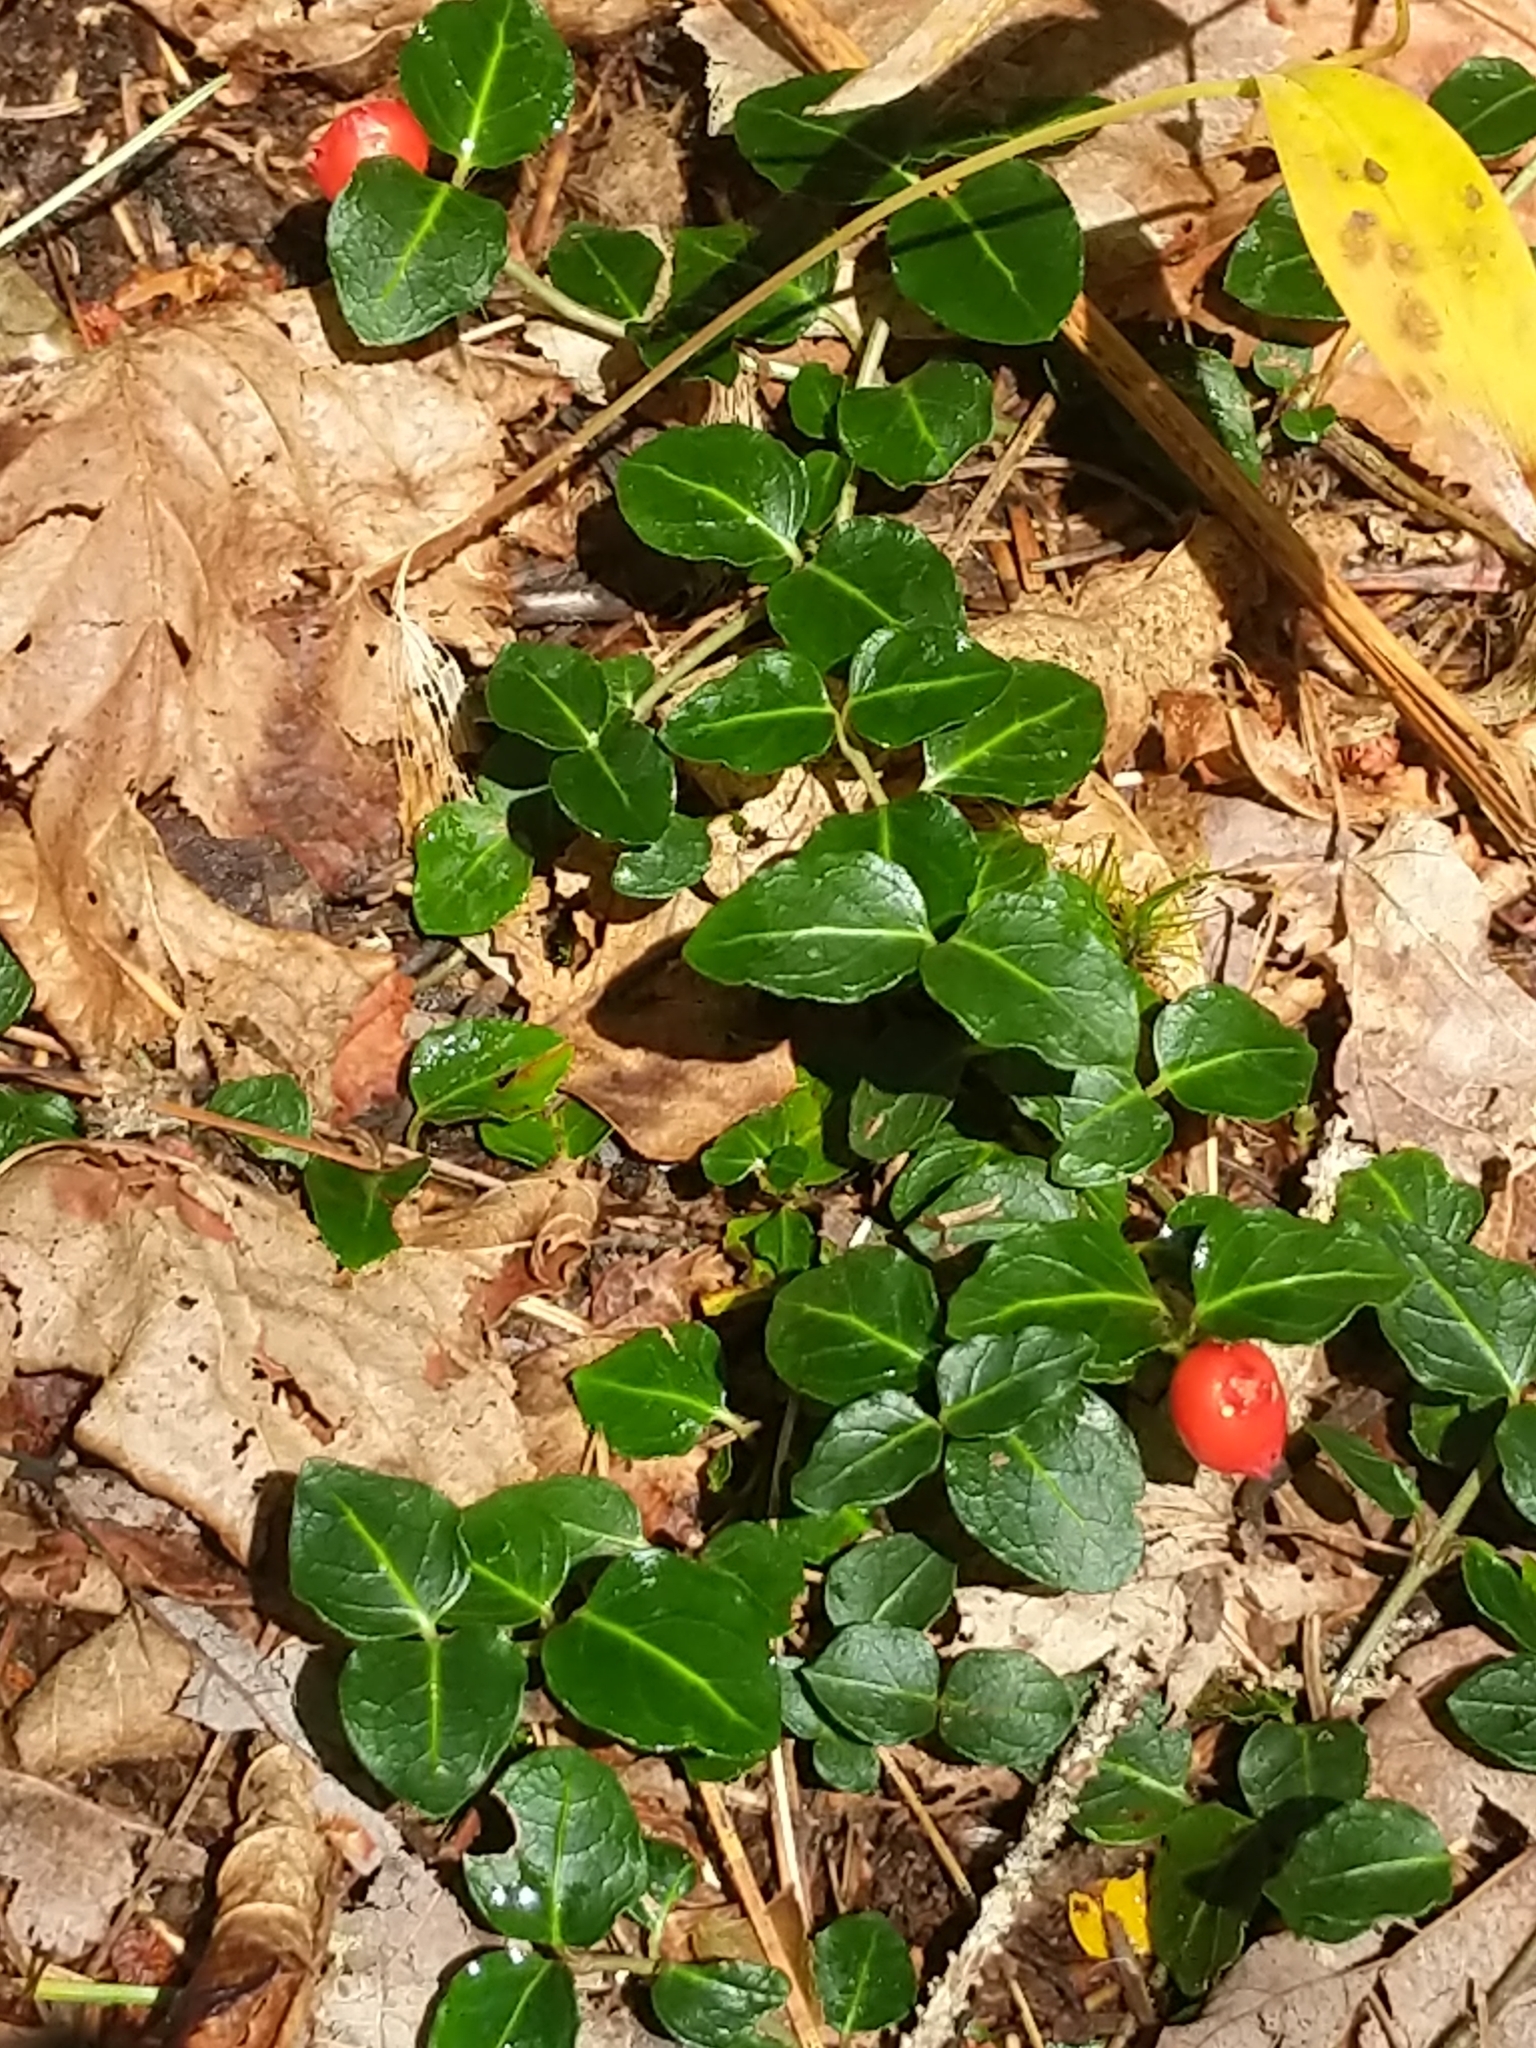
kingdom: Plantae
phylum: Tracheophyta
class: Magnoliopsida
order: Gentianales
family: Rubiaceae
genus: Mitchella
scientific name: Mitchella repens
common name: Partridge-berry
